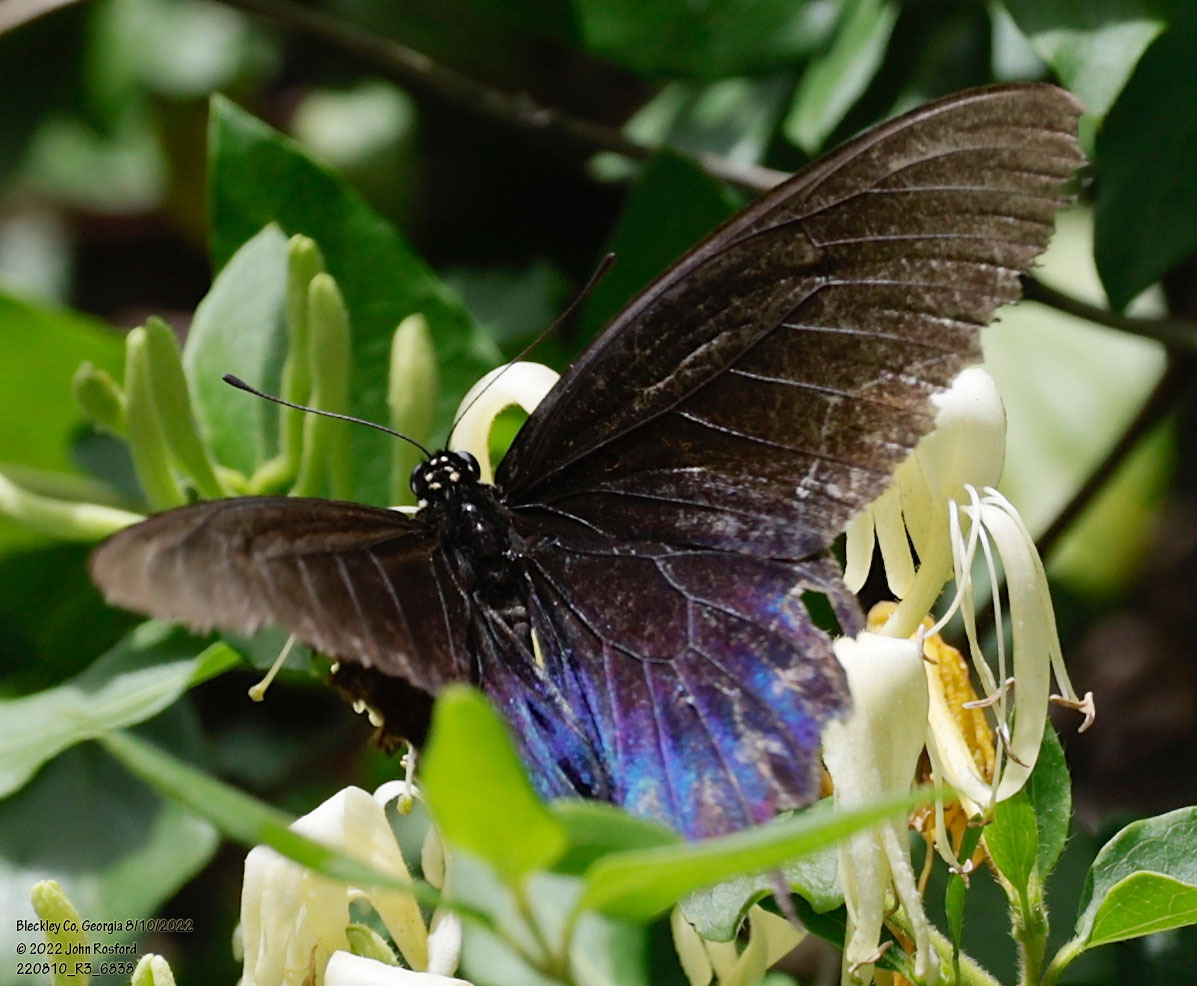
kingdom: Animalia
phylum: Arthropoda
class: Insecta
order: Lepidoptera
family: Papilionidae
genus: Battus
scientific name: Battus philenor
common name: Pipevine swallowtail
